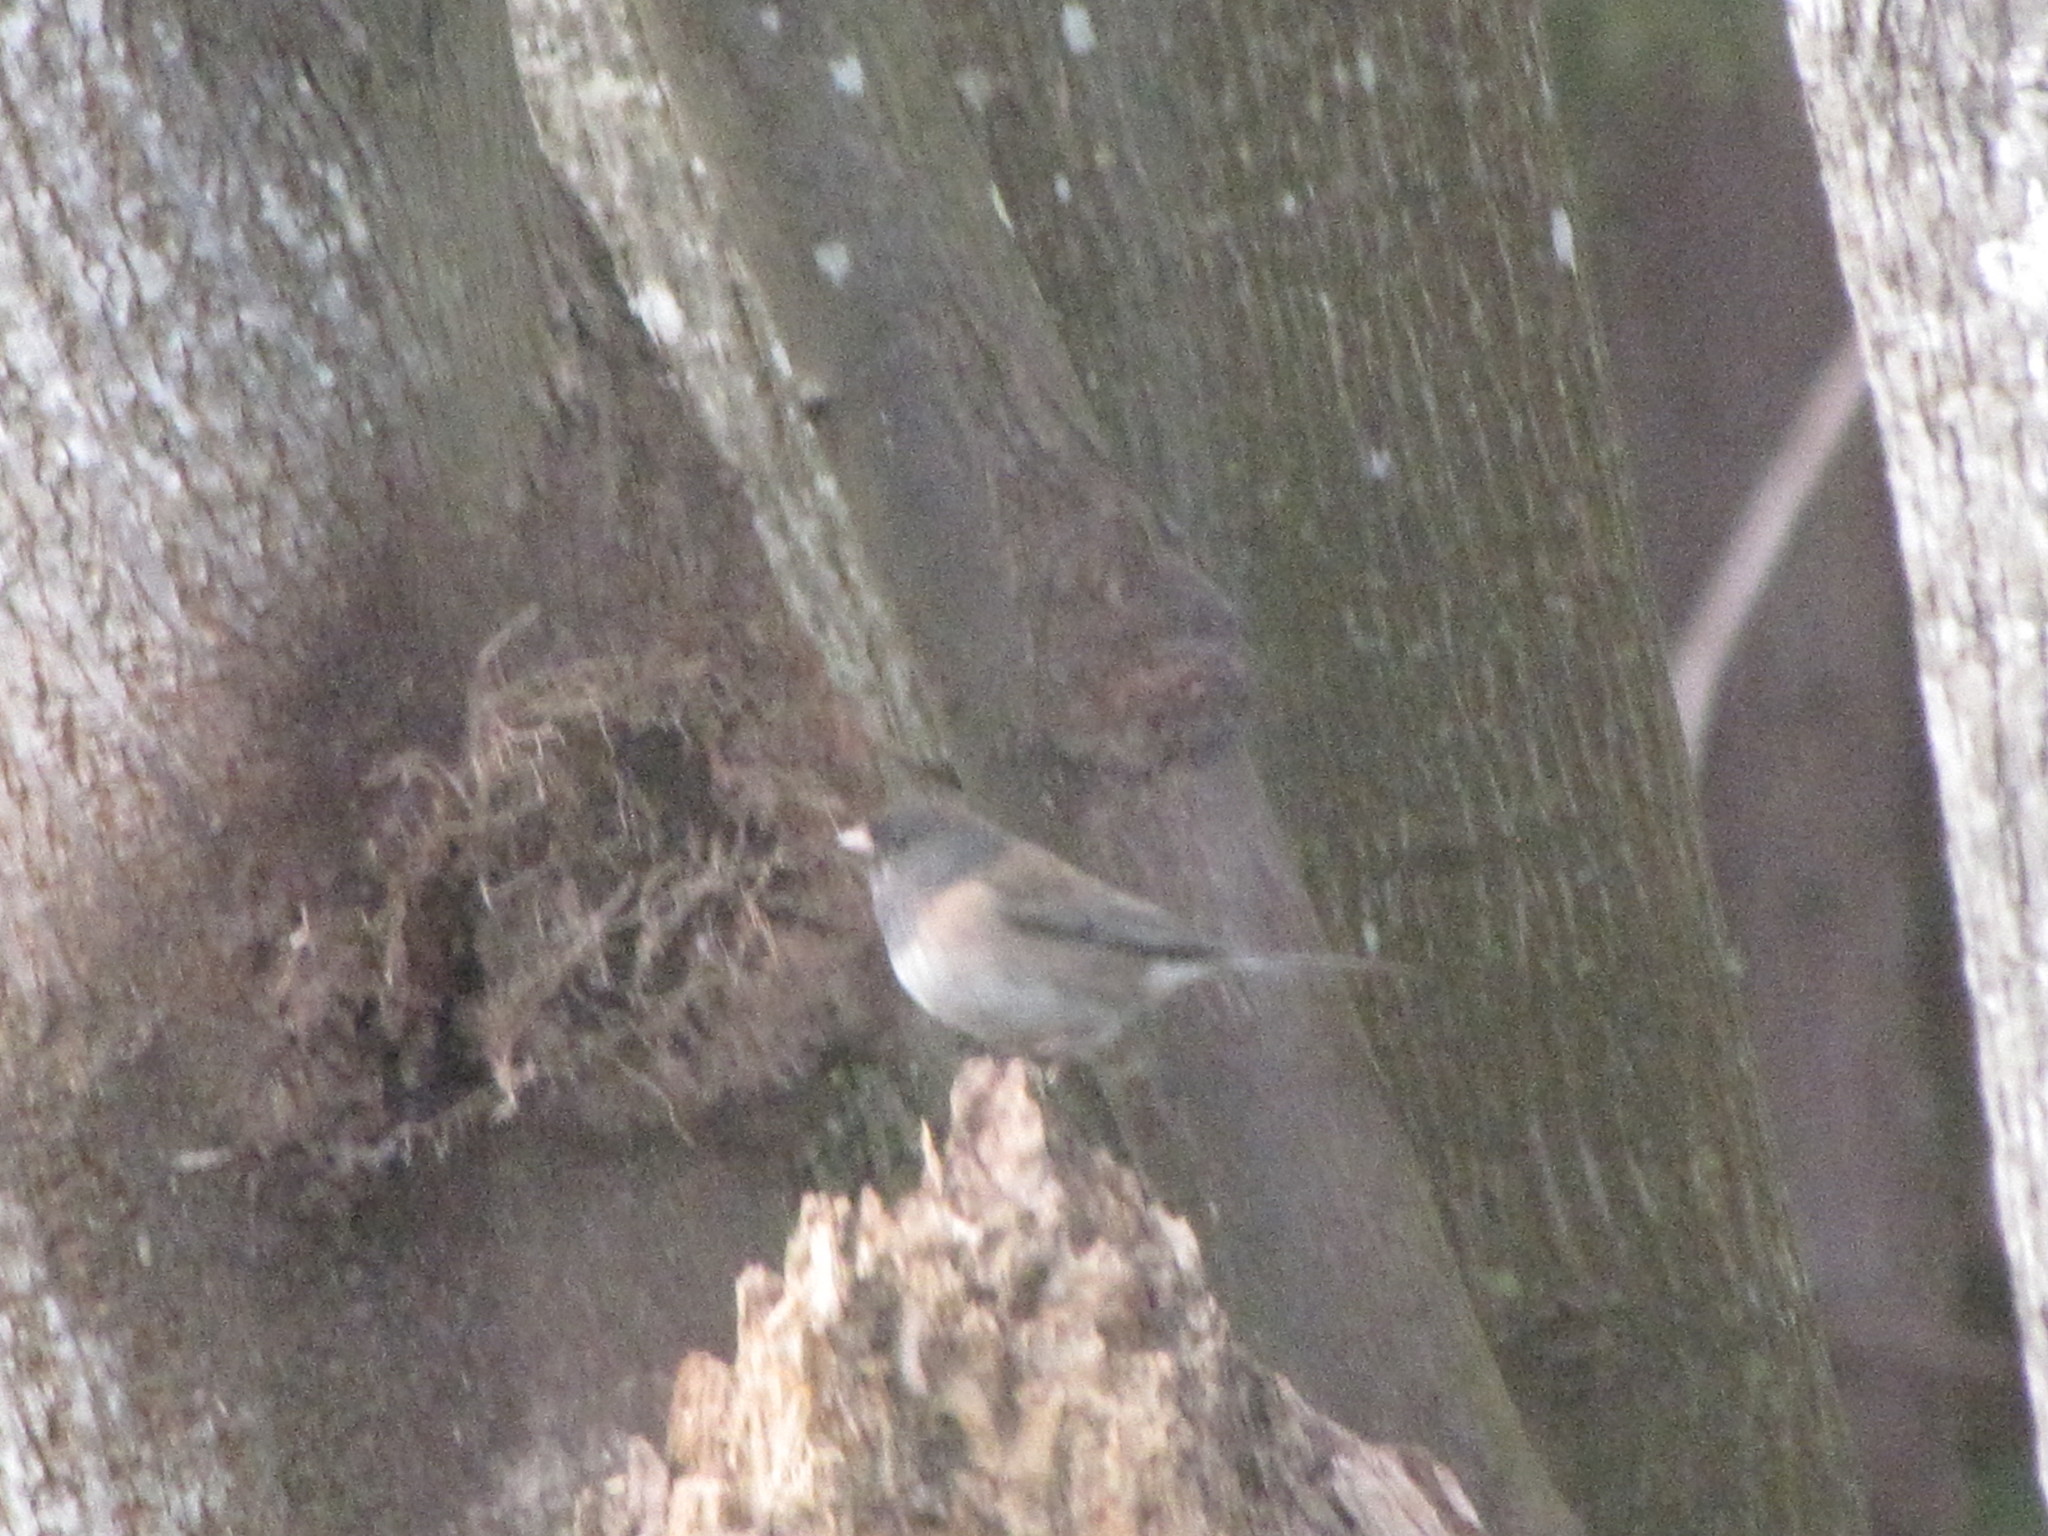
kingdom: Animalia
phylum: Chordata
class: Aves
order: Passeriformes
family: Passerellidae
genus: Junco
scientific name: Junco hyemalis
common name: Dark-eyed junco
